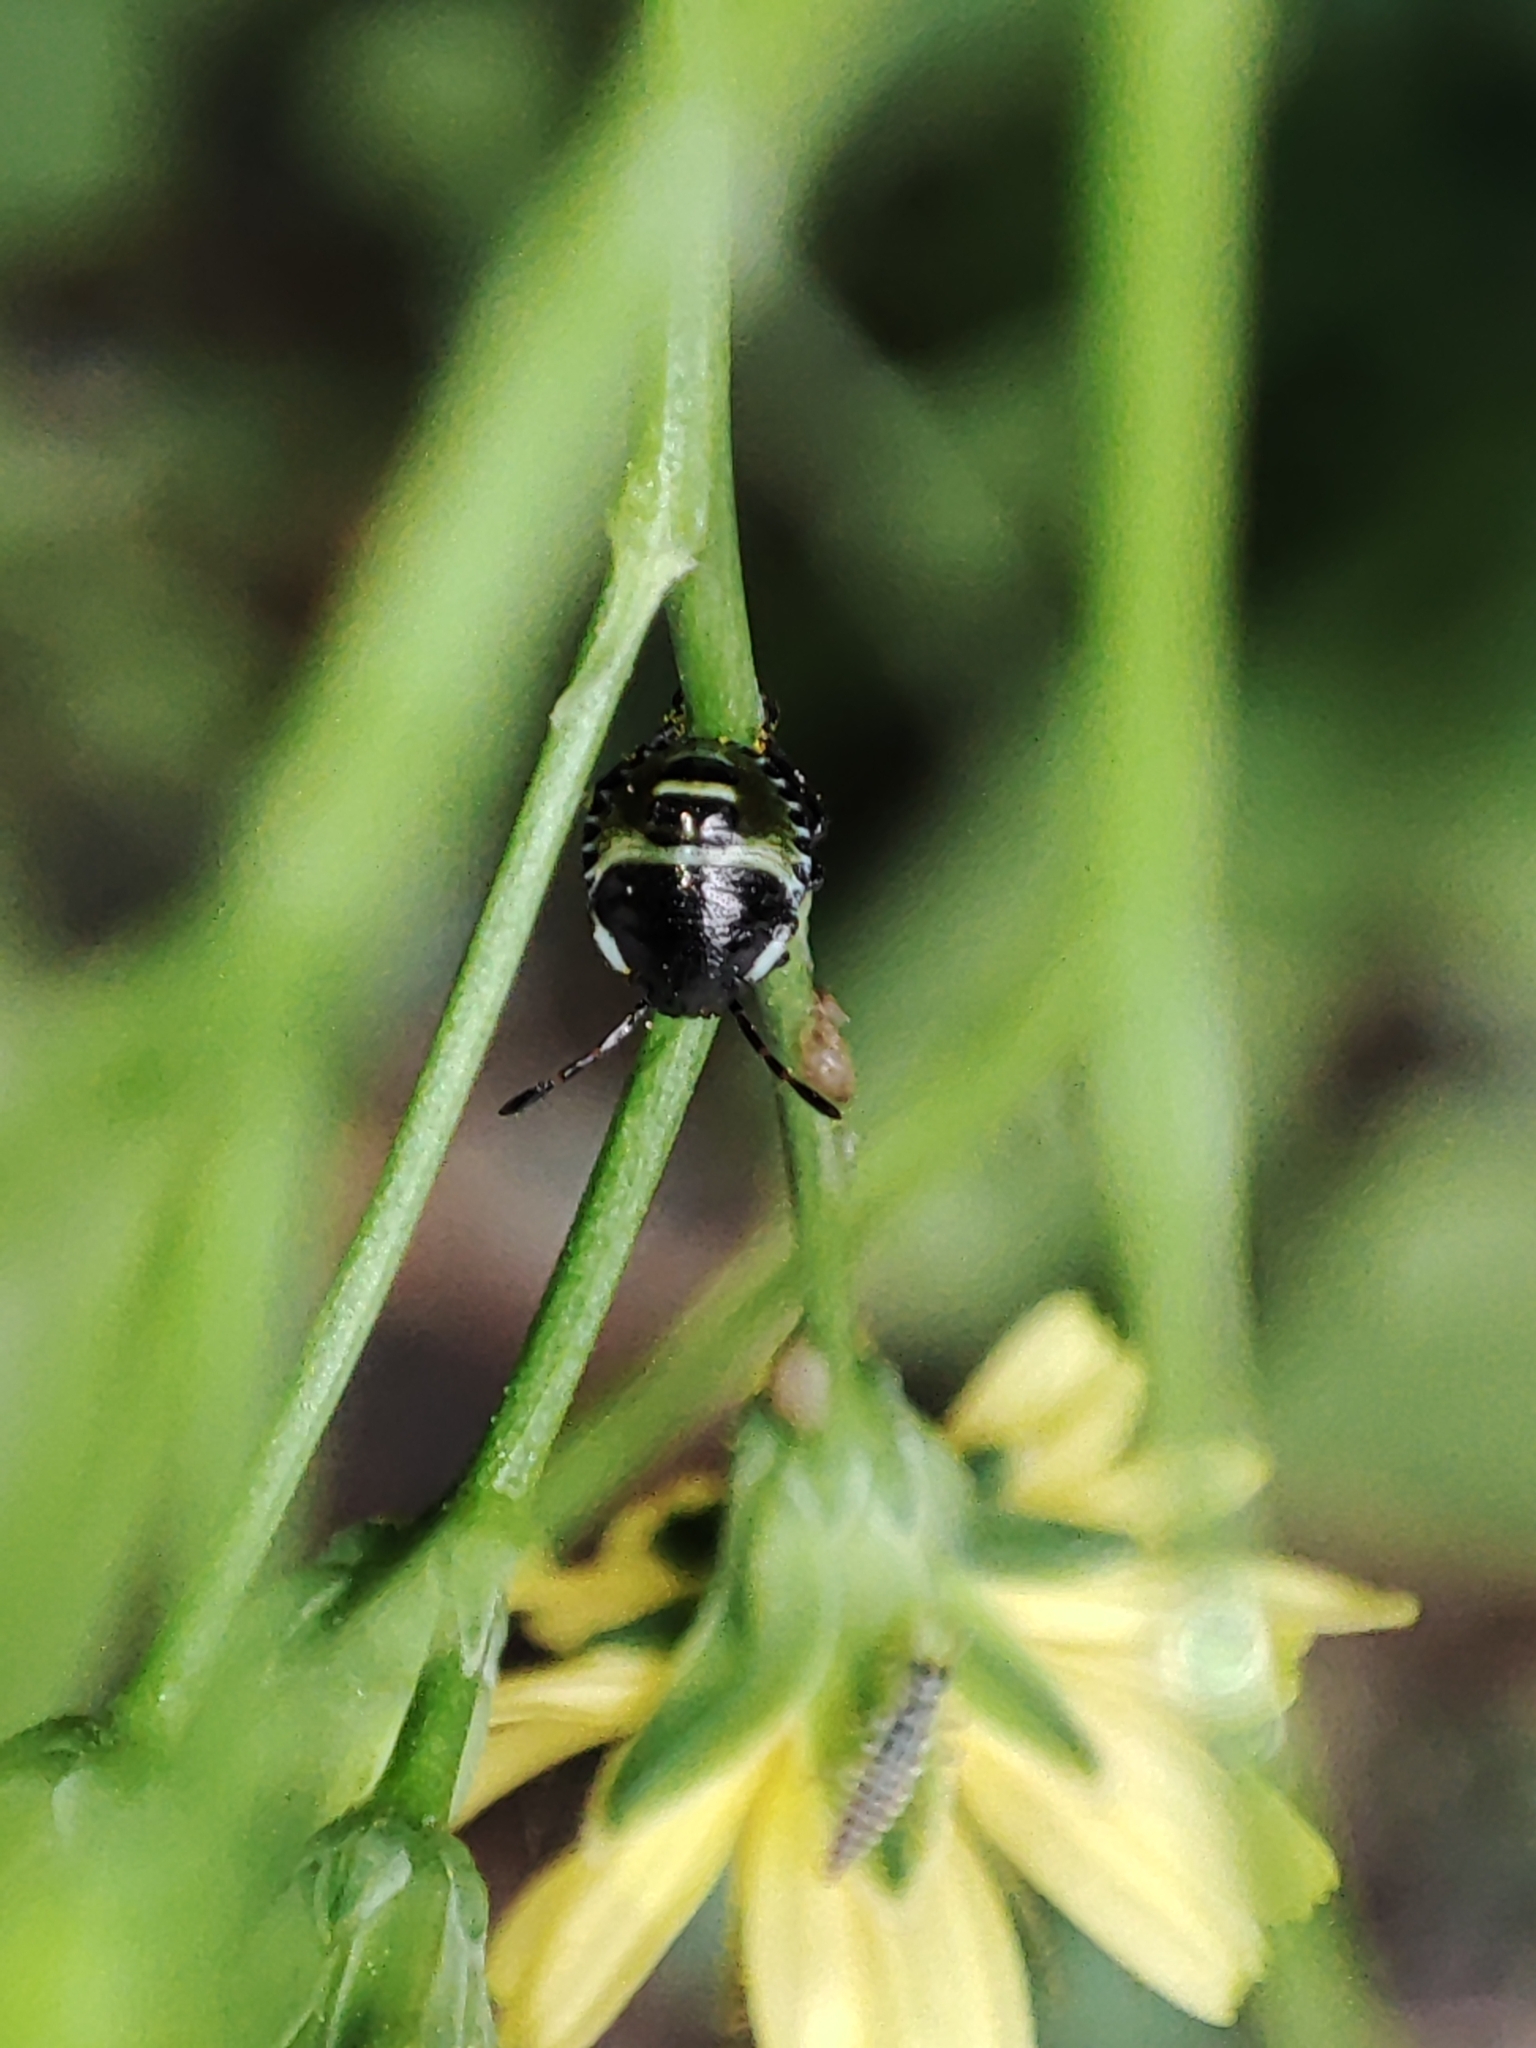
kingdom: Animalia
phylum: Arthropoda
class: Insecta
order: Hemiptera
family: Pentatomidae
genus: Palomena
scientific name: Palomena prasina
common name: Green shieldbug
